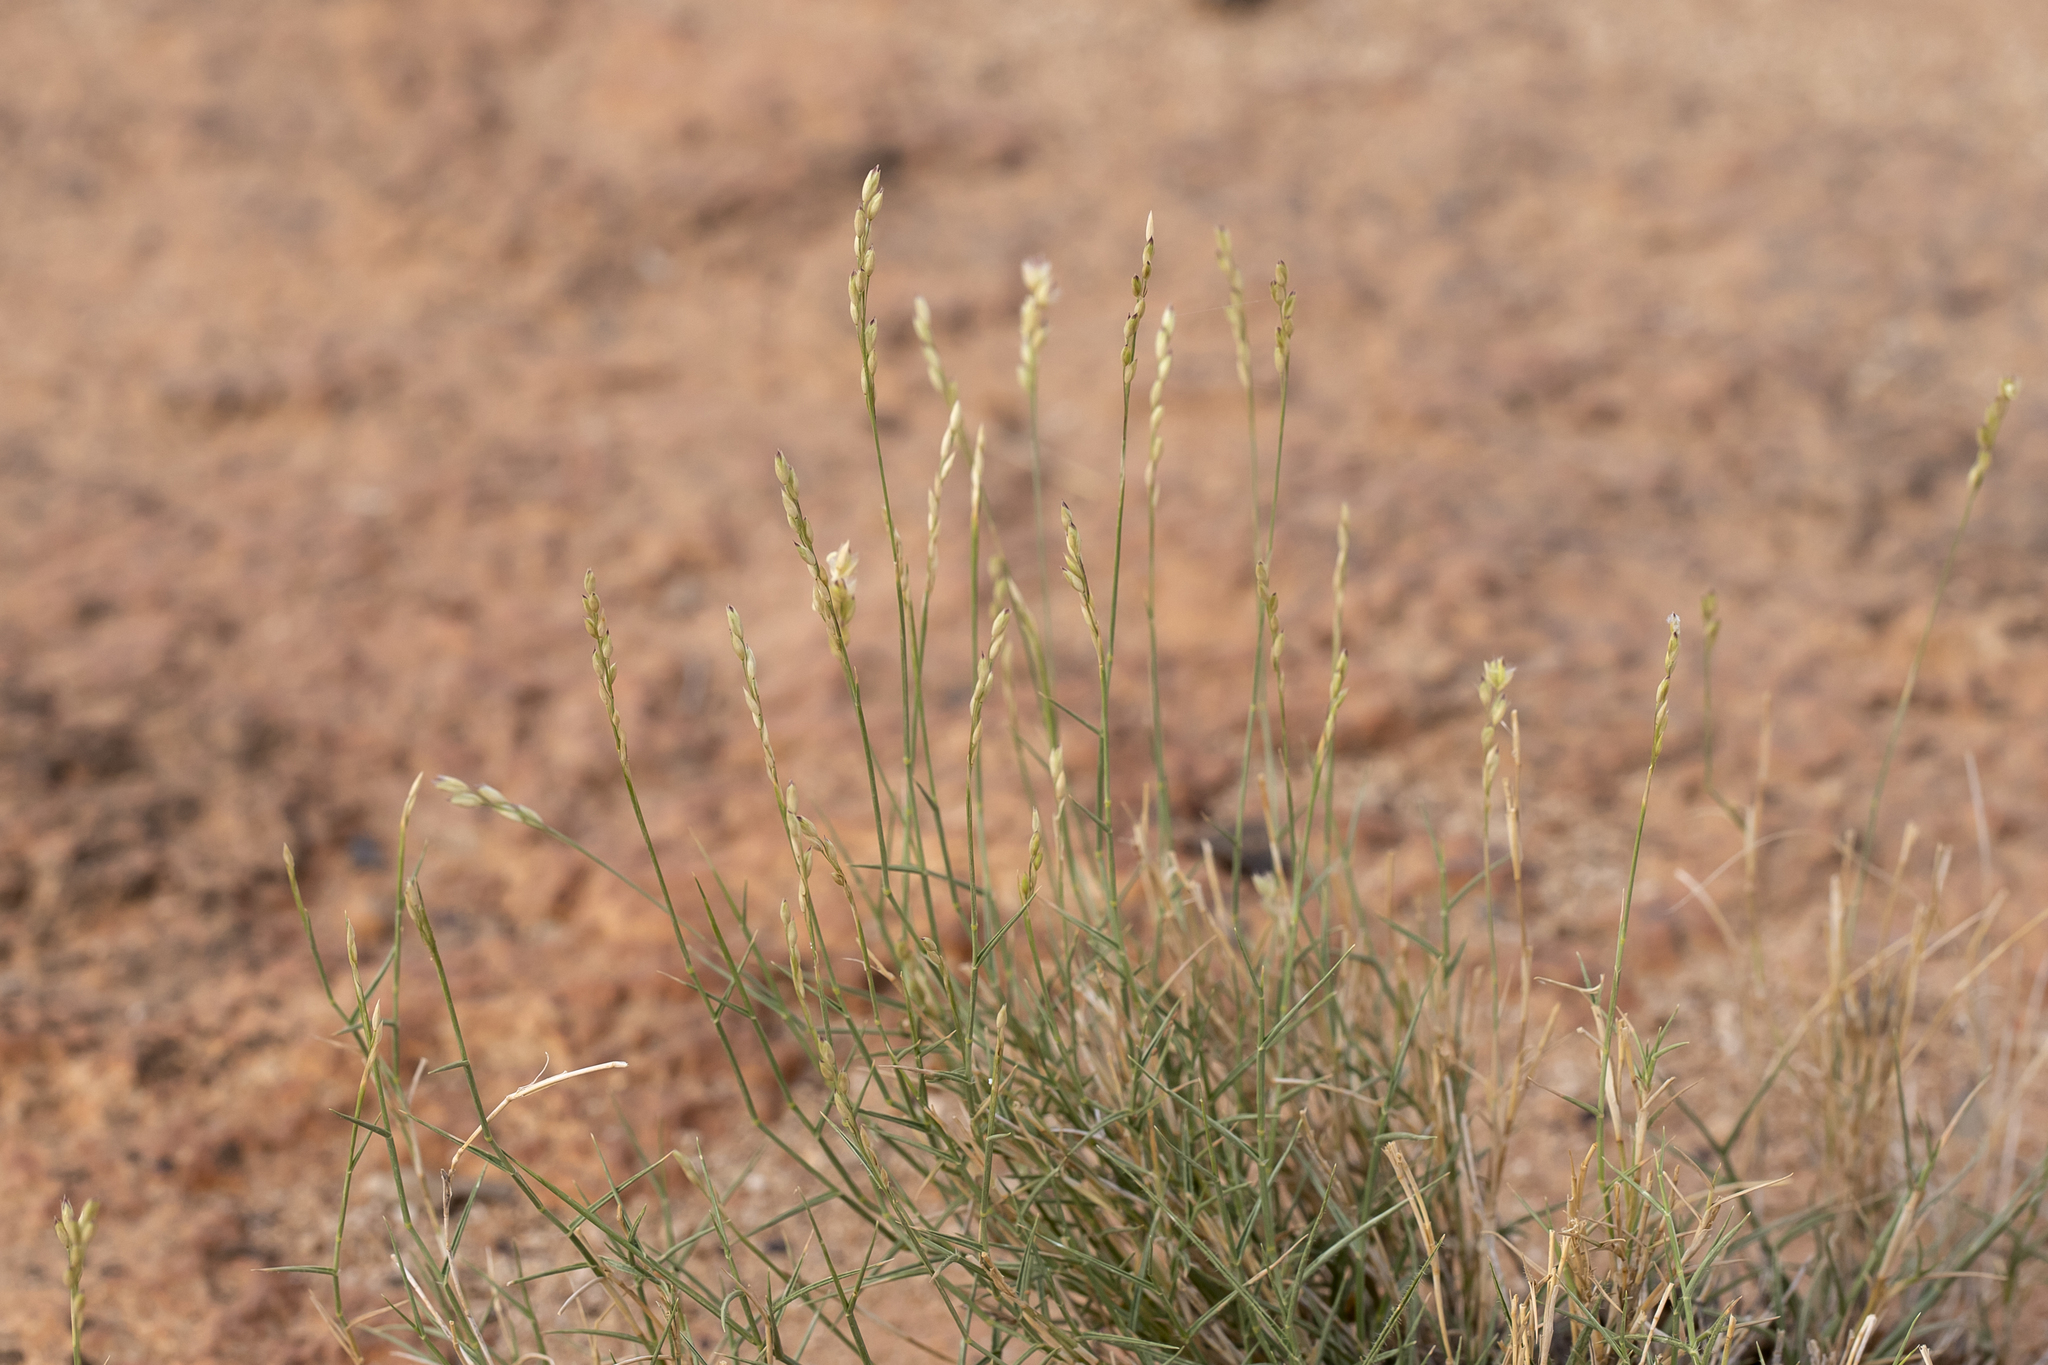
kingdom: Plantae
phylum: Tracheophyta
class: Liliopsida
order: Poales
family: Poaceae
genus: Eriachne
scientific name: Eriachne mucronata
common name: Mountain wanderrie grass
